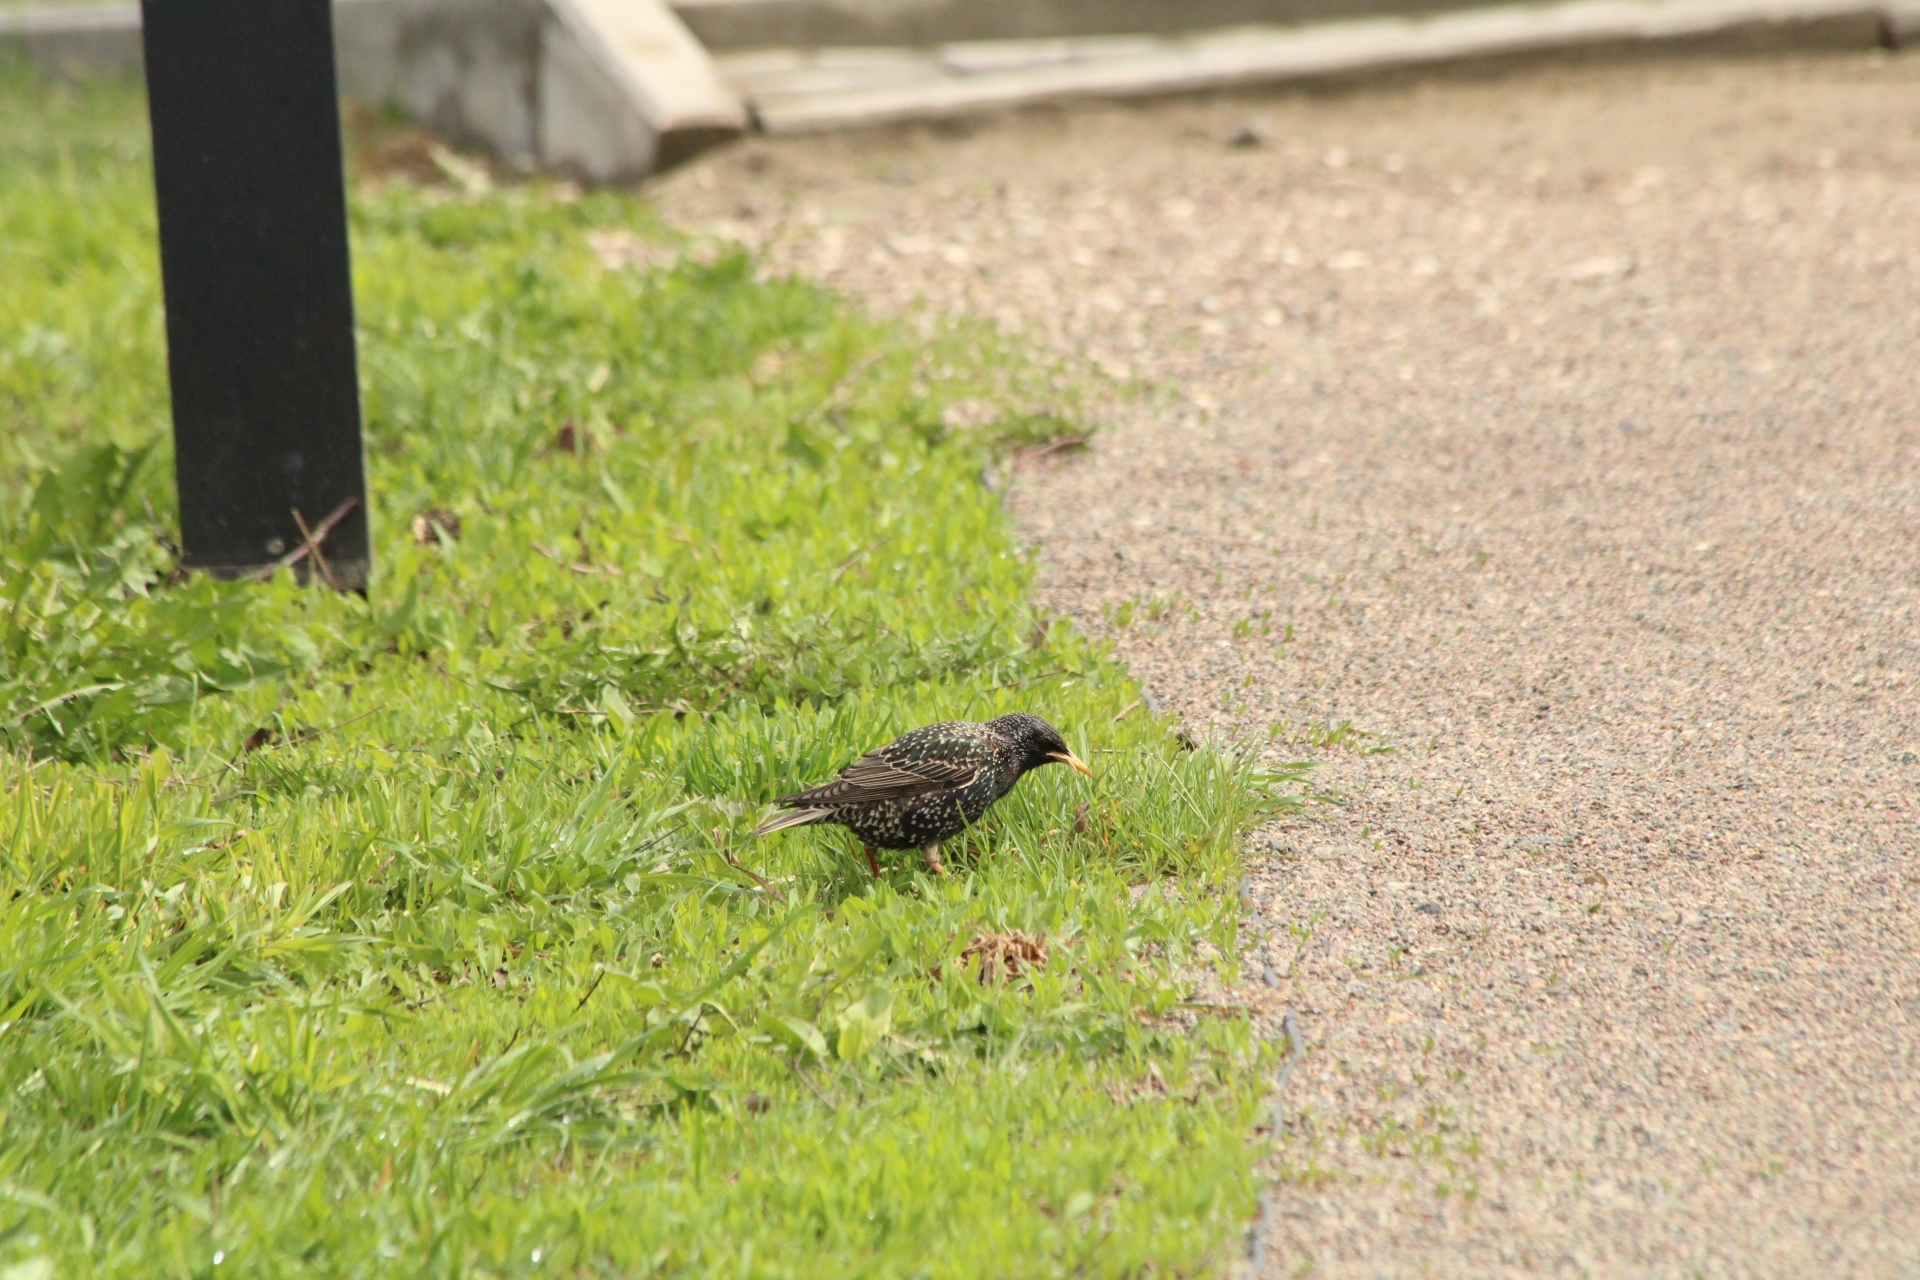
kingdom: Animalia
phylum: Chordata
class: Aves
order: Passeriformes
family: Sturnidae
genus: Sturnus
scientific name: Sturnus vulgaris
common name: Common starling
